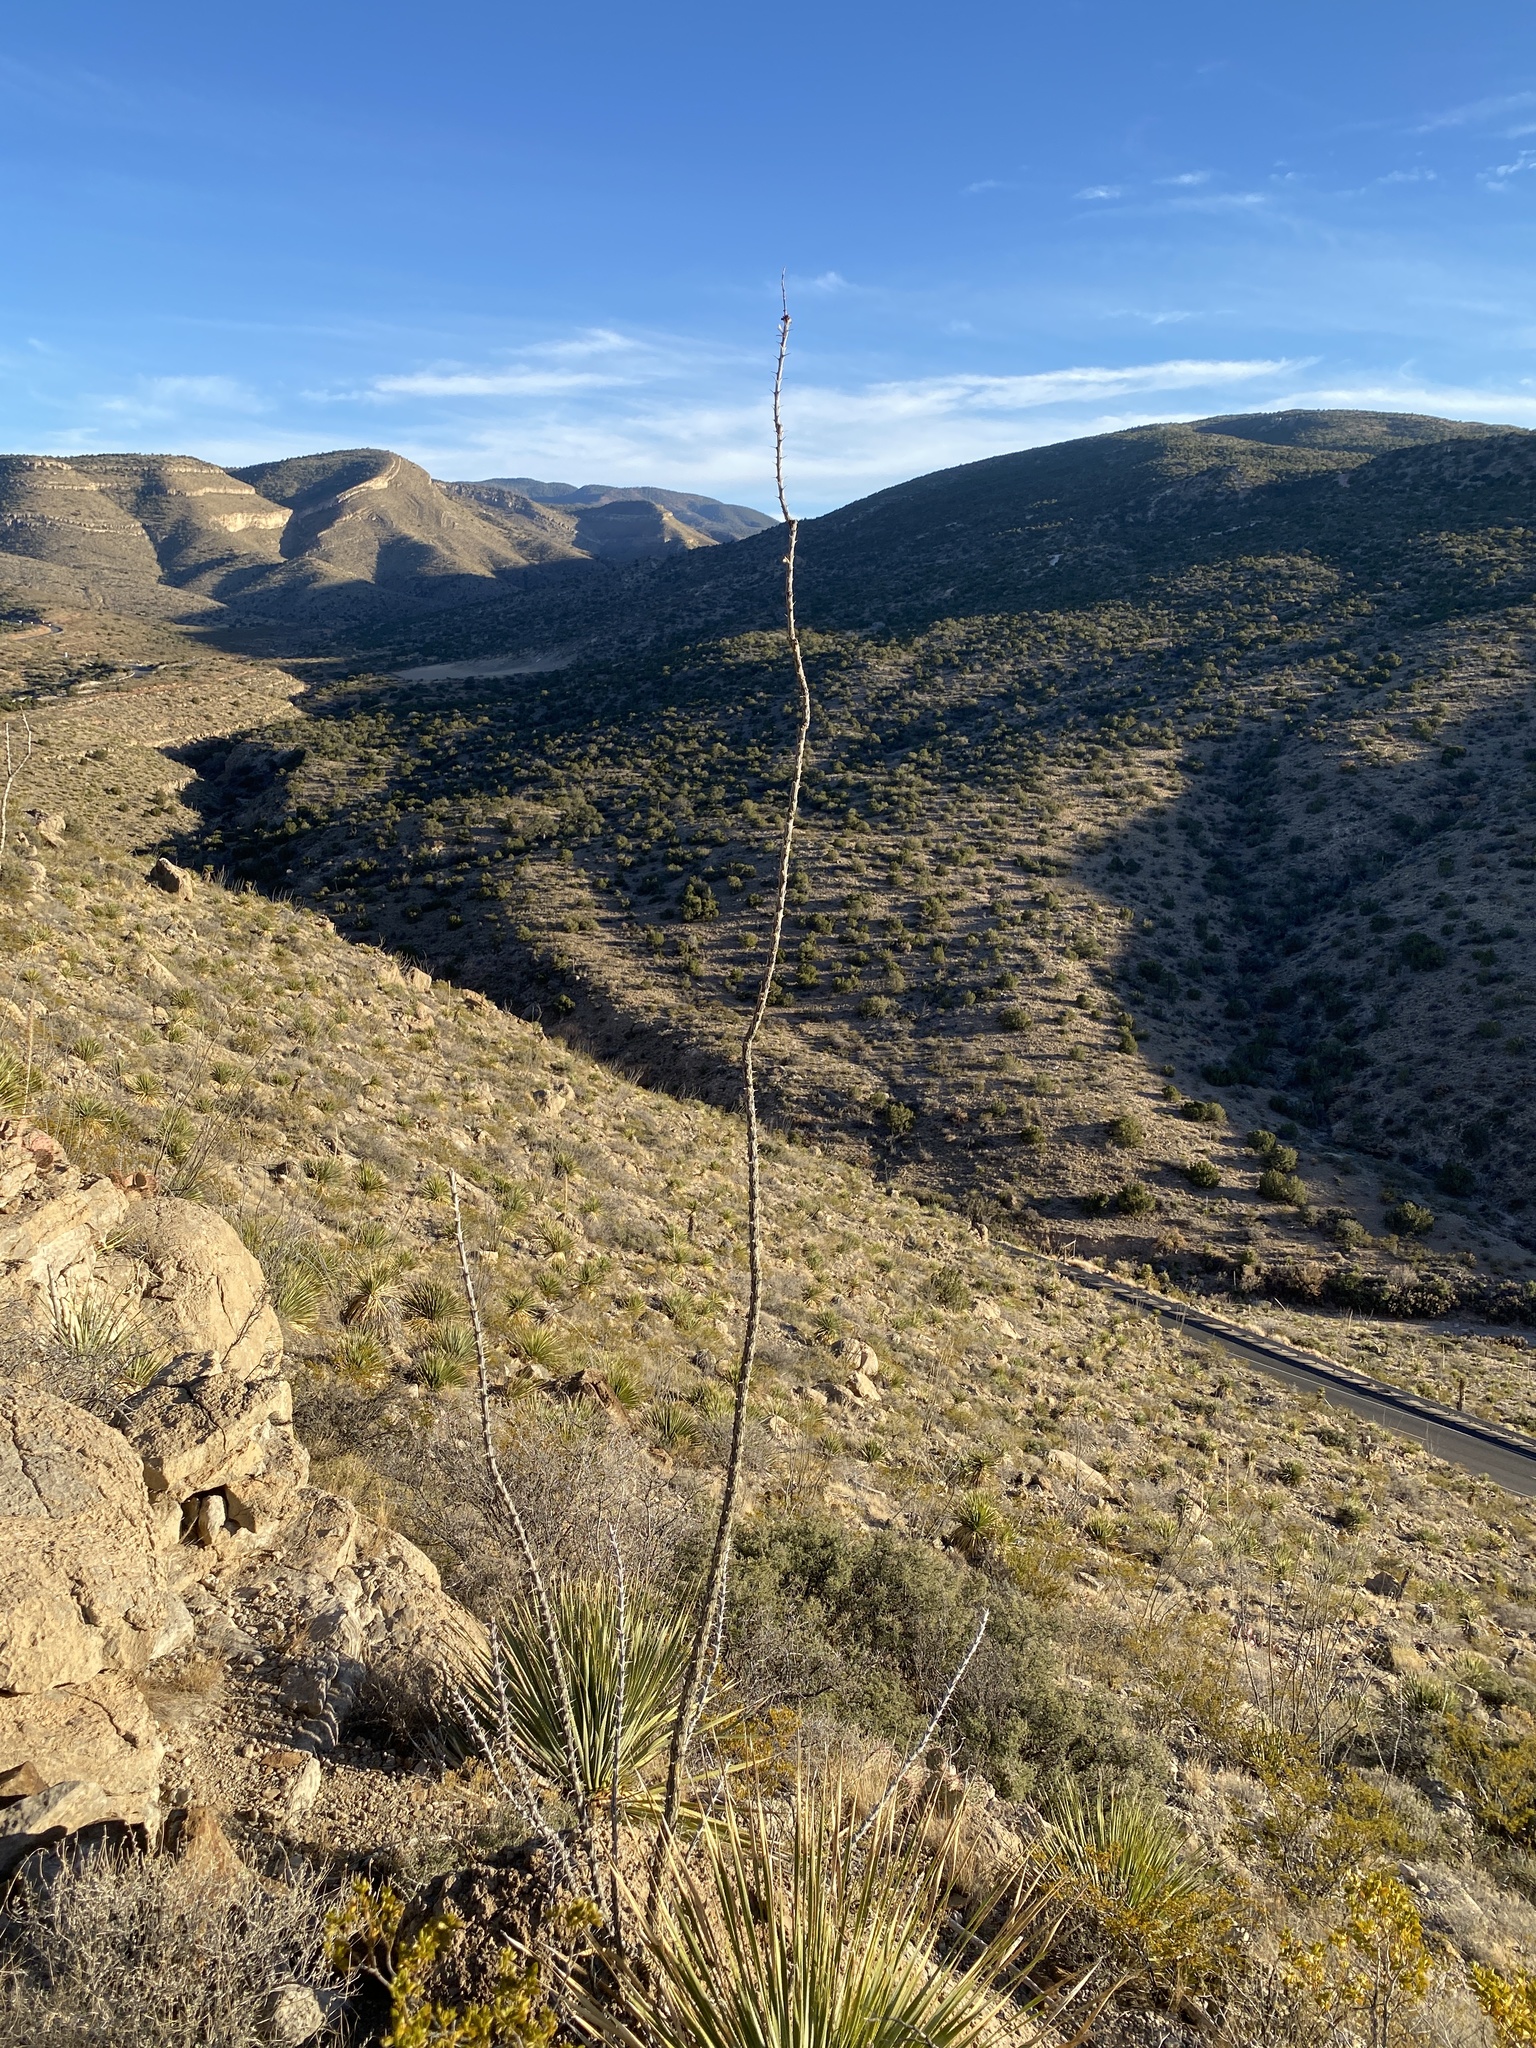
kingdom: Plantae
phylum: Tracheophyta
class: Magnoliopsida
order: Ericales
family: Fouquieriaceae
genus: Fouquieria
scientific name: Fouquieria splendens
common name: Vine-cactus
